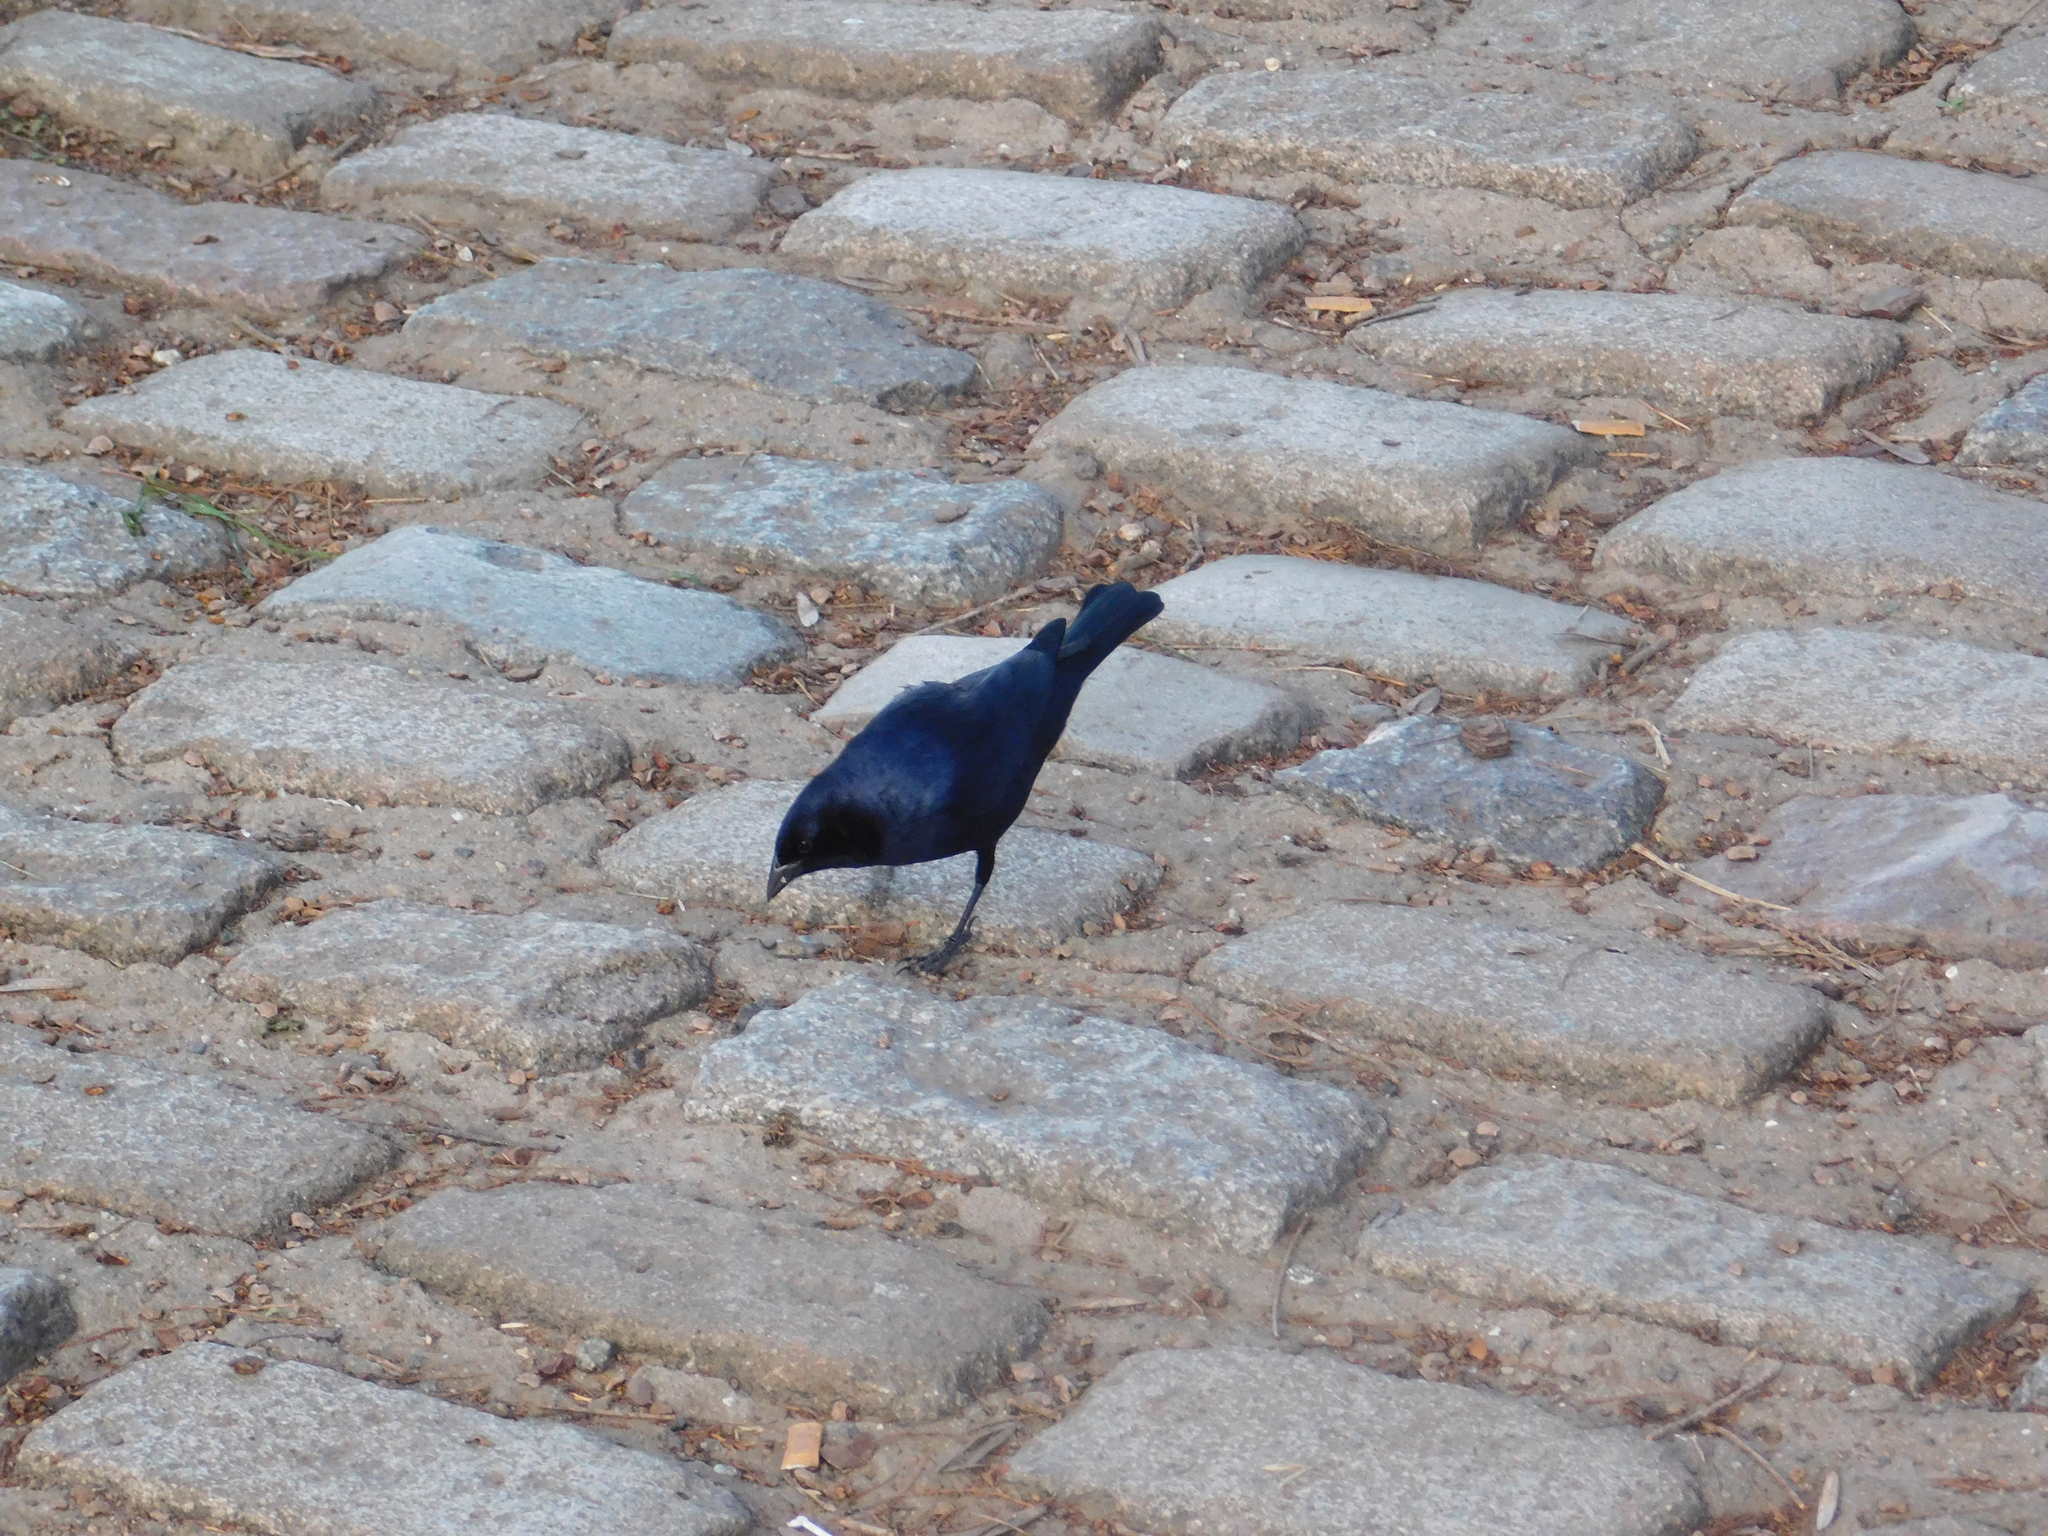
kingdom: Animalia
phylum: Chordata
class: Aves
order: Passeriformes
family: Icteridae
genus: Molothrus
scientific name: Molothrus bonariensis
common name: Shiny cowbird
